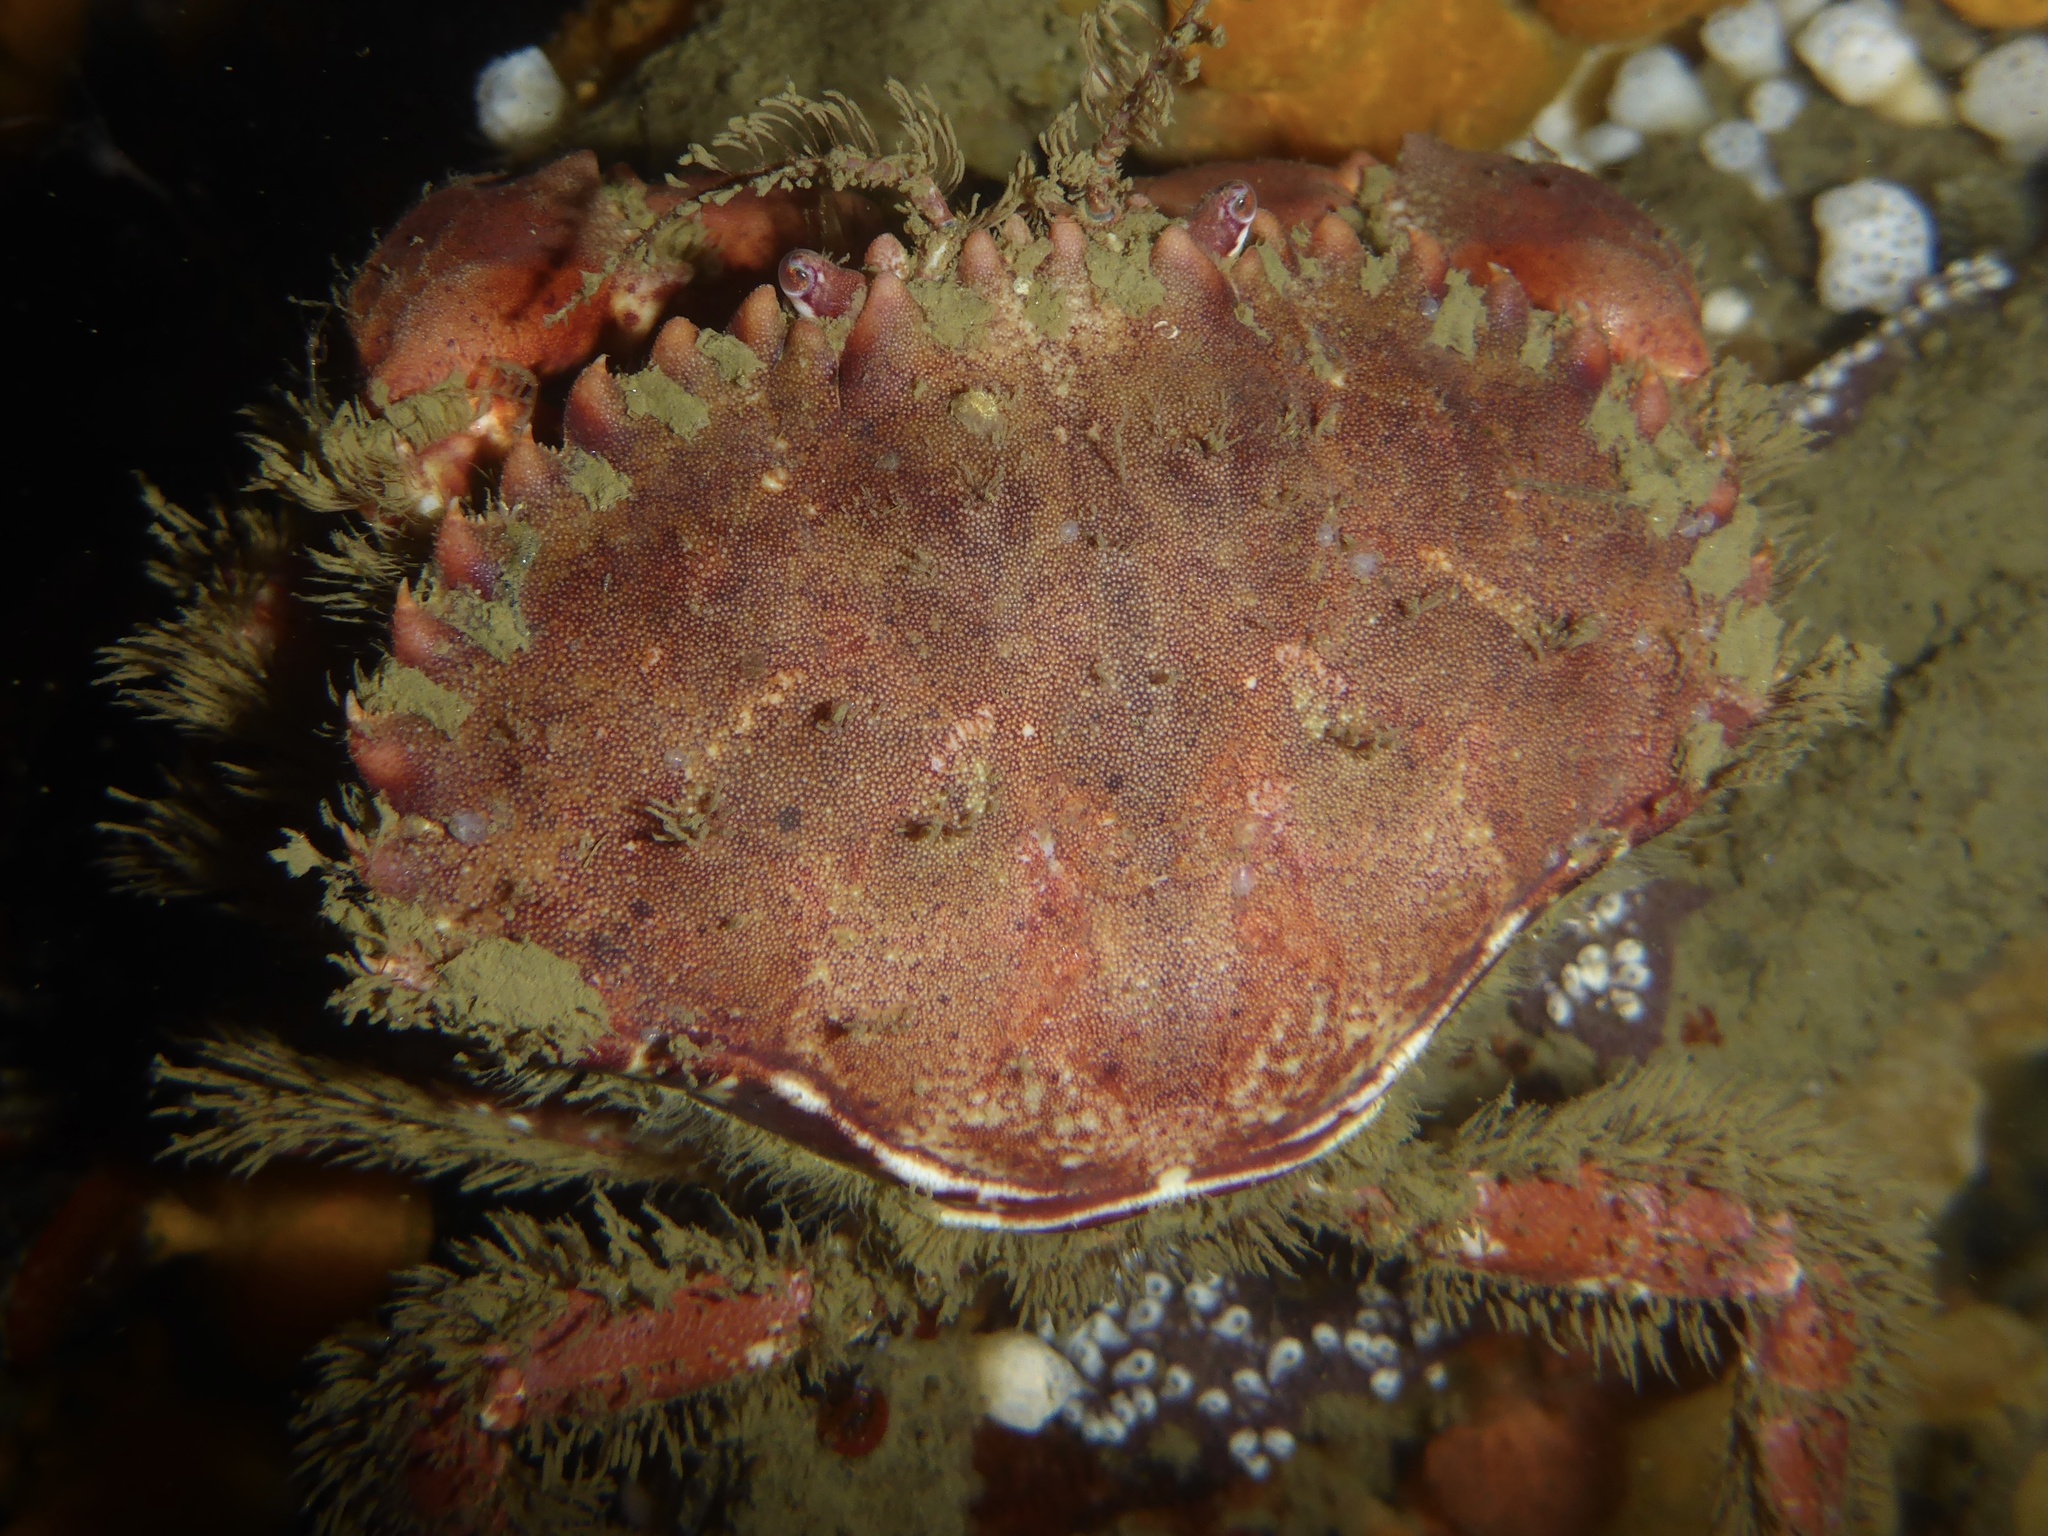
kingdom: Animalia
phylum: Arthropoda
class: Malacostraca
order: Decapoda
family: Cancridae
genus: Romaleon
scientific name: Romaleon antennarium
